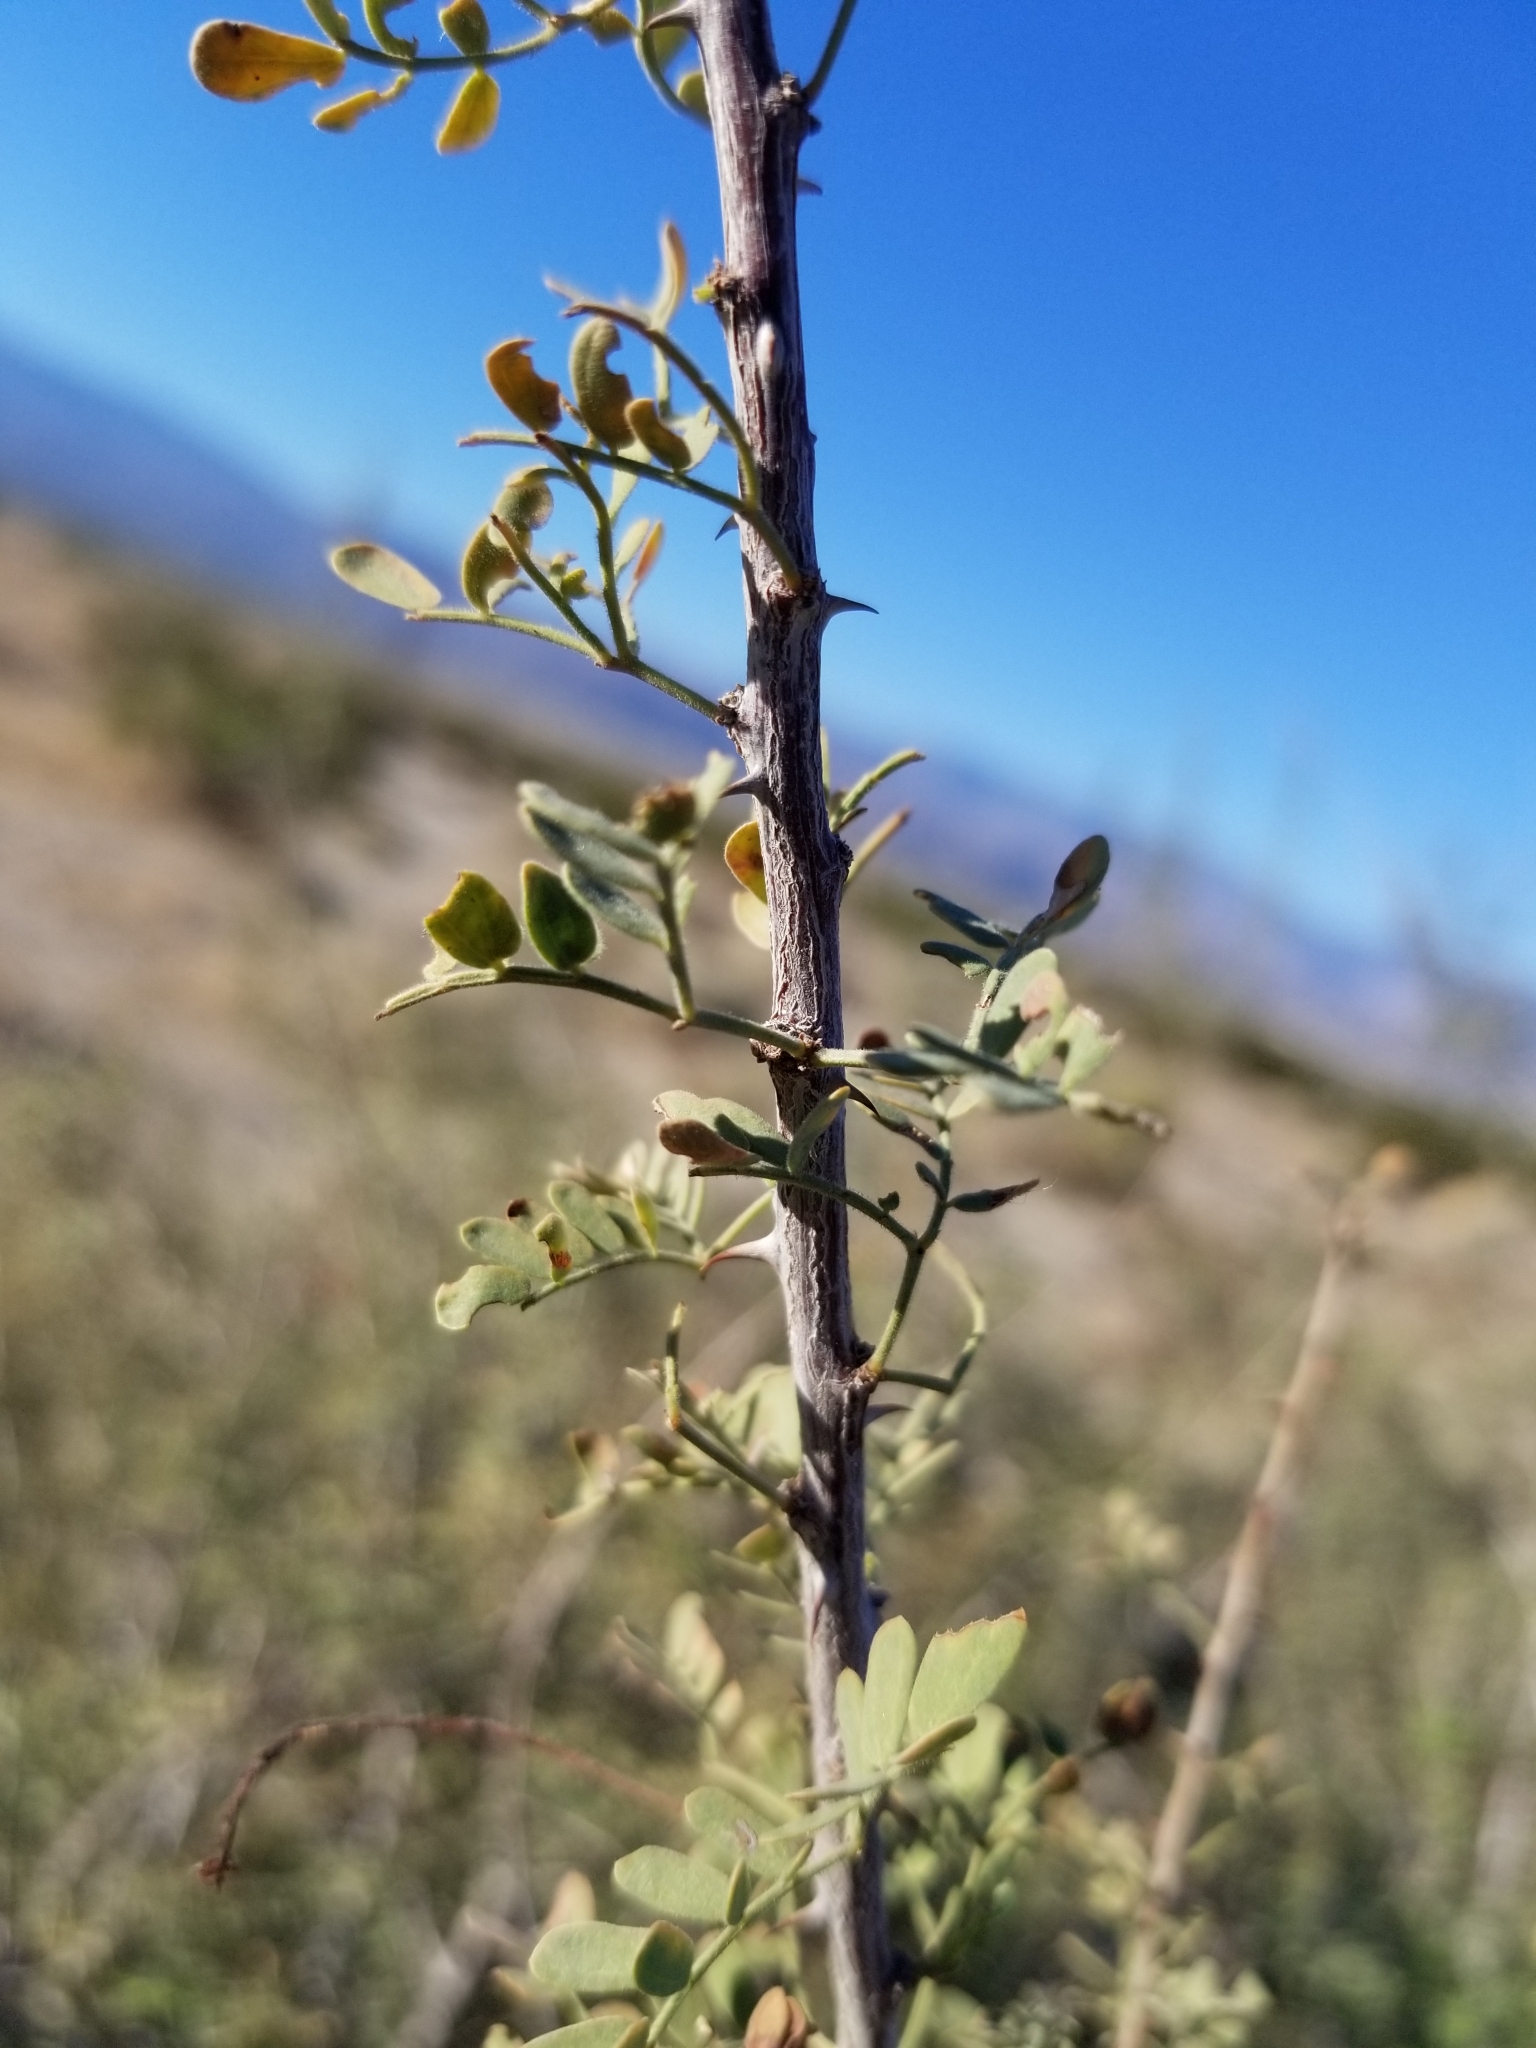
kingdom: Plantae
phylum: Tracheophyta
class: Magnoliopsida
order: Fabales
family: Fabaceae
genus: Senegalia
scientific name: Senegalia greggii
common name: Texas-mimosa
